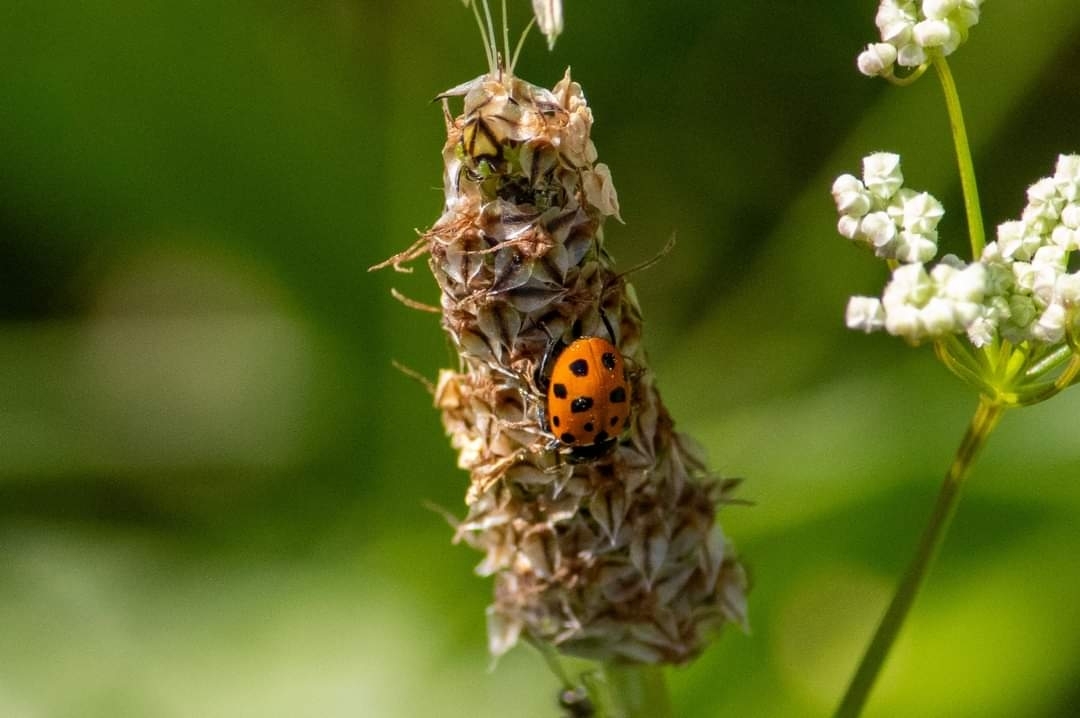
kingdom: Animalia
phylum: Arthropoda
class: Insecta
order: Coleoptera
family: Coccinellidae
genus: Hippodamia
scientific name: Hippodamia variegata
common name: Ladybird beetle
